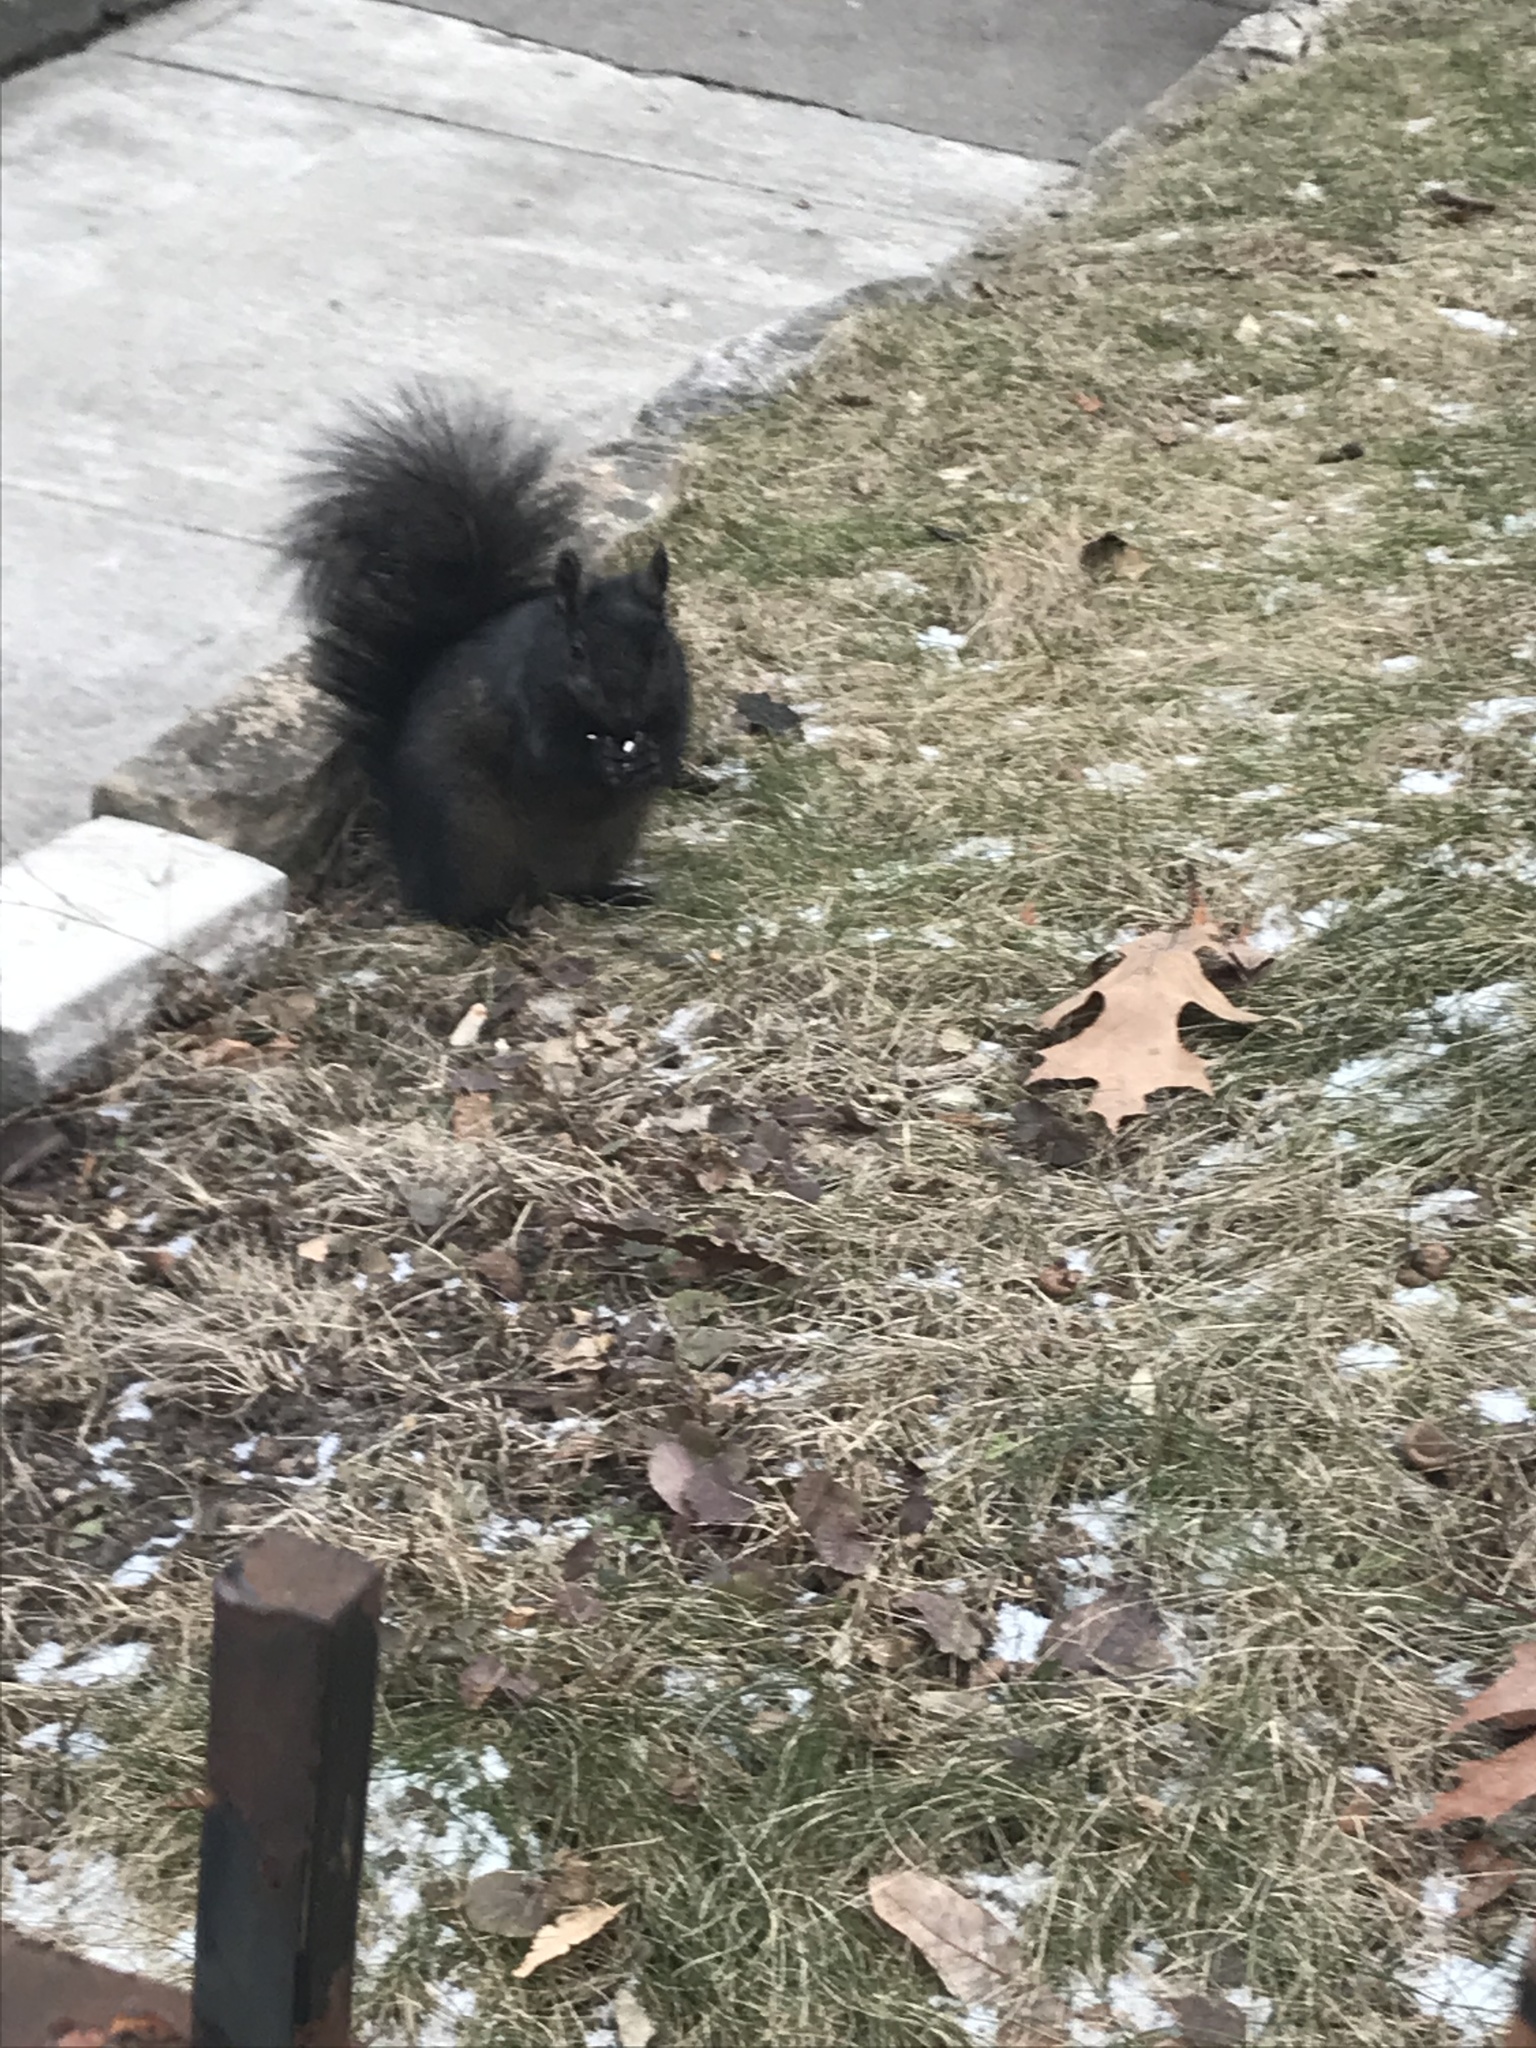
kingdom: Animalia
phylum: Chordata
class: Mammalia
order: Rodentia
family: Sciuridae
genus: Sciurus
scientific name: Sciurus carolinensis
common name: Eastern gray squirrel
